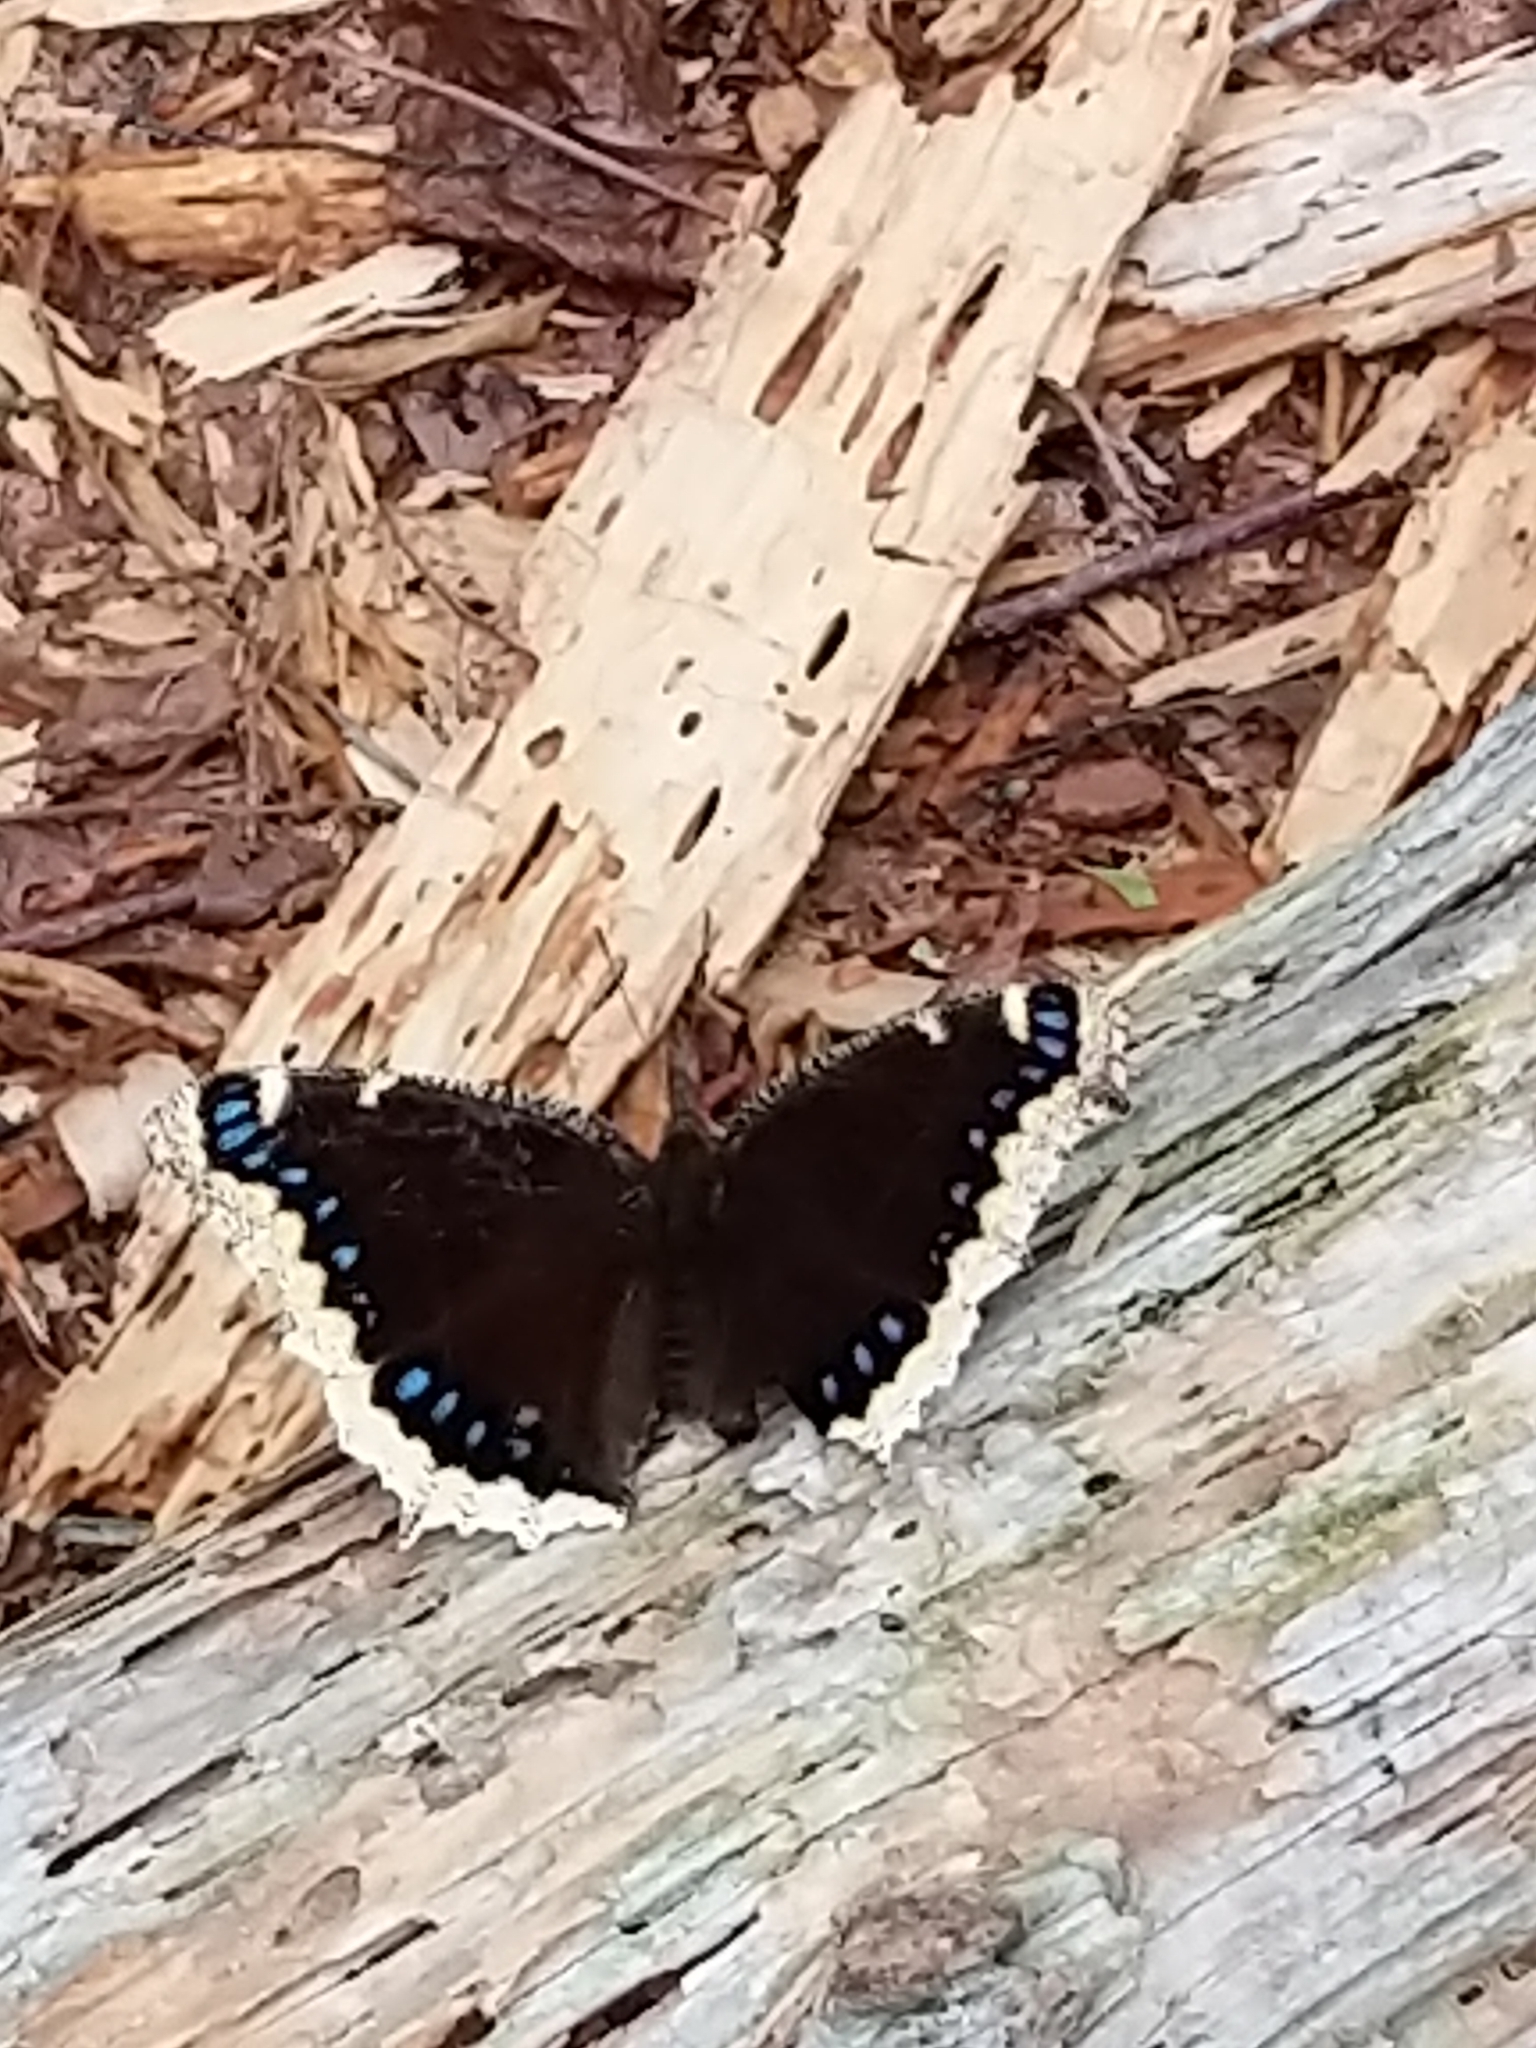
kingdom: Animalia
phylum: Arthropoda
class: Insecta
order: Lepidoptera
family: Nymphalidae
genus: Nymphalis
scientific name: Nymphalis antiopa
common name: Camberwell beauty
